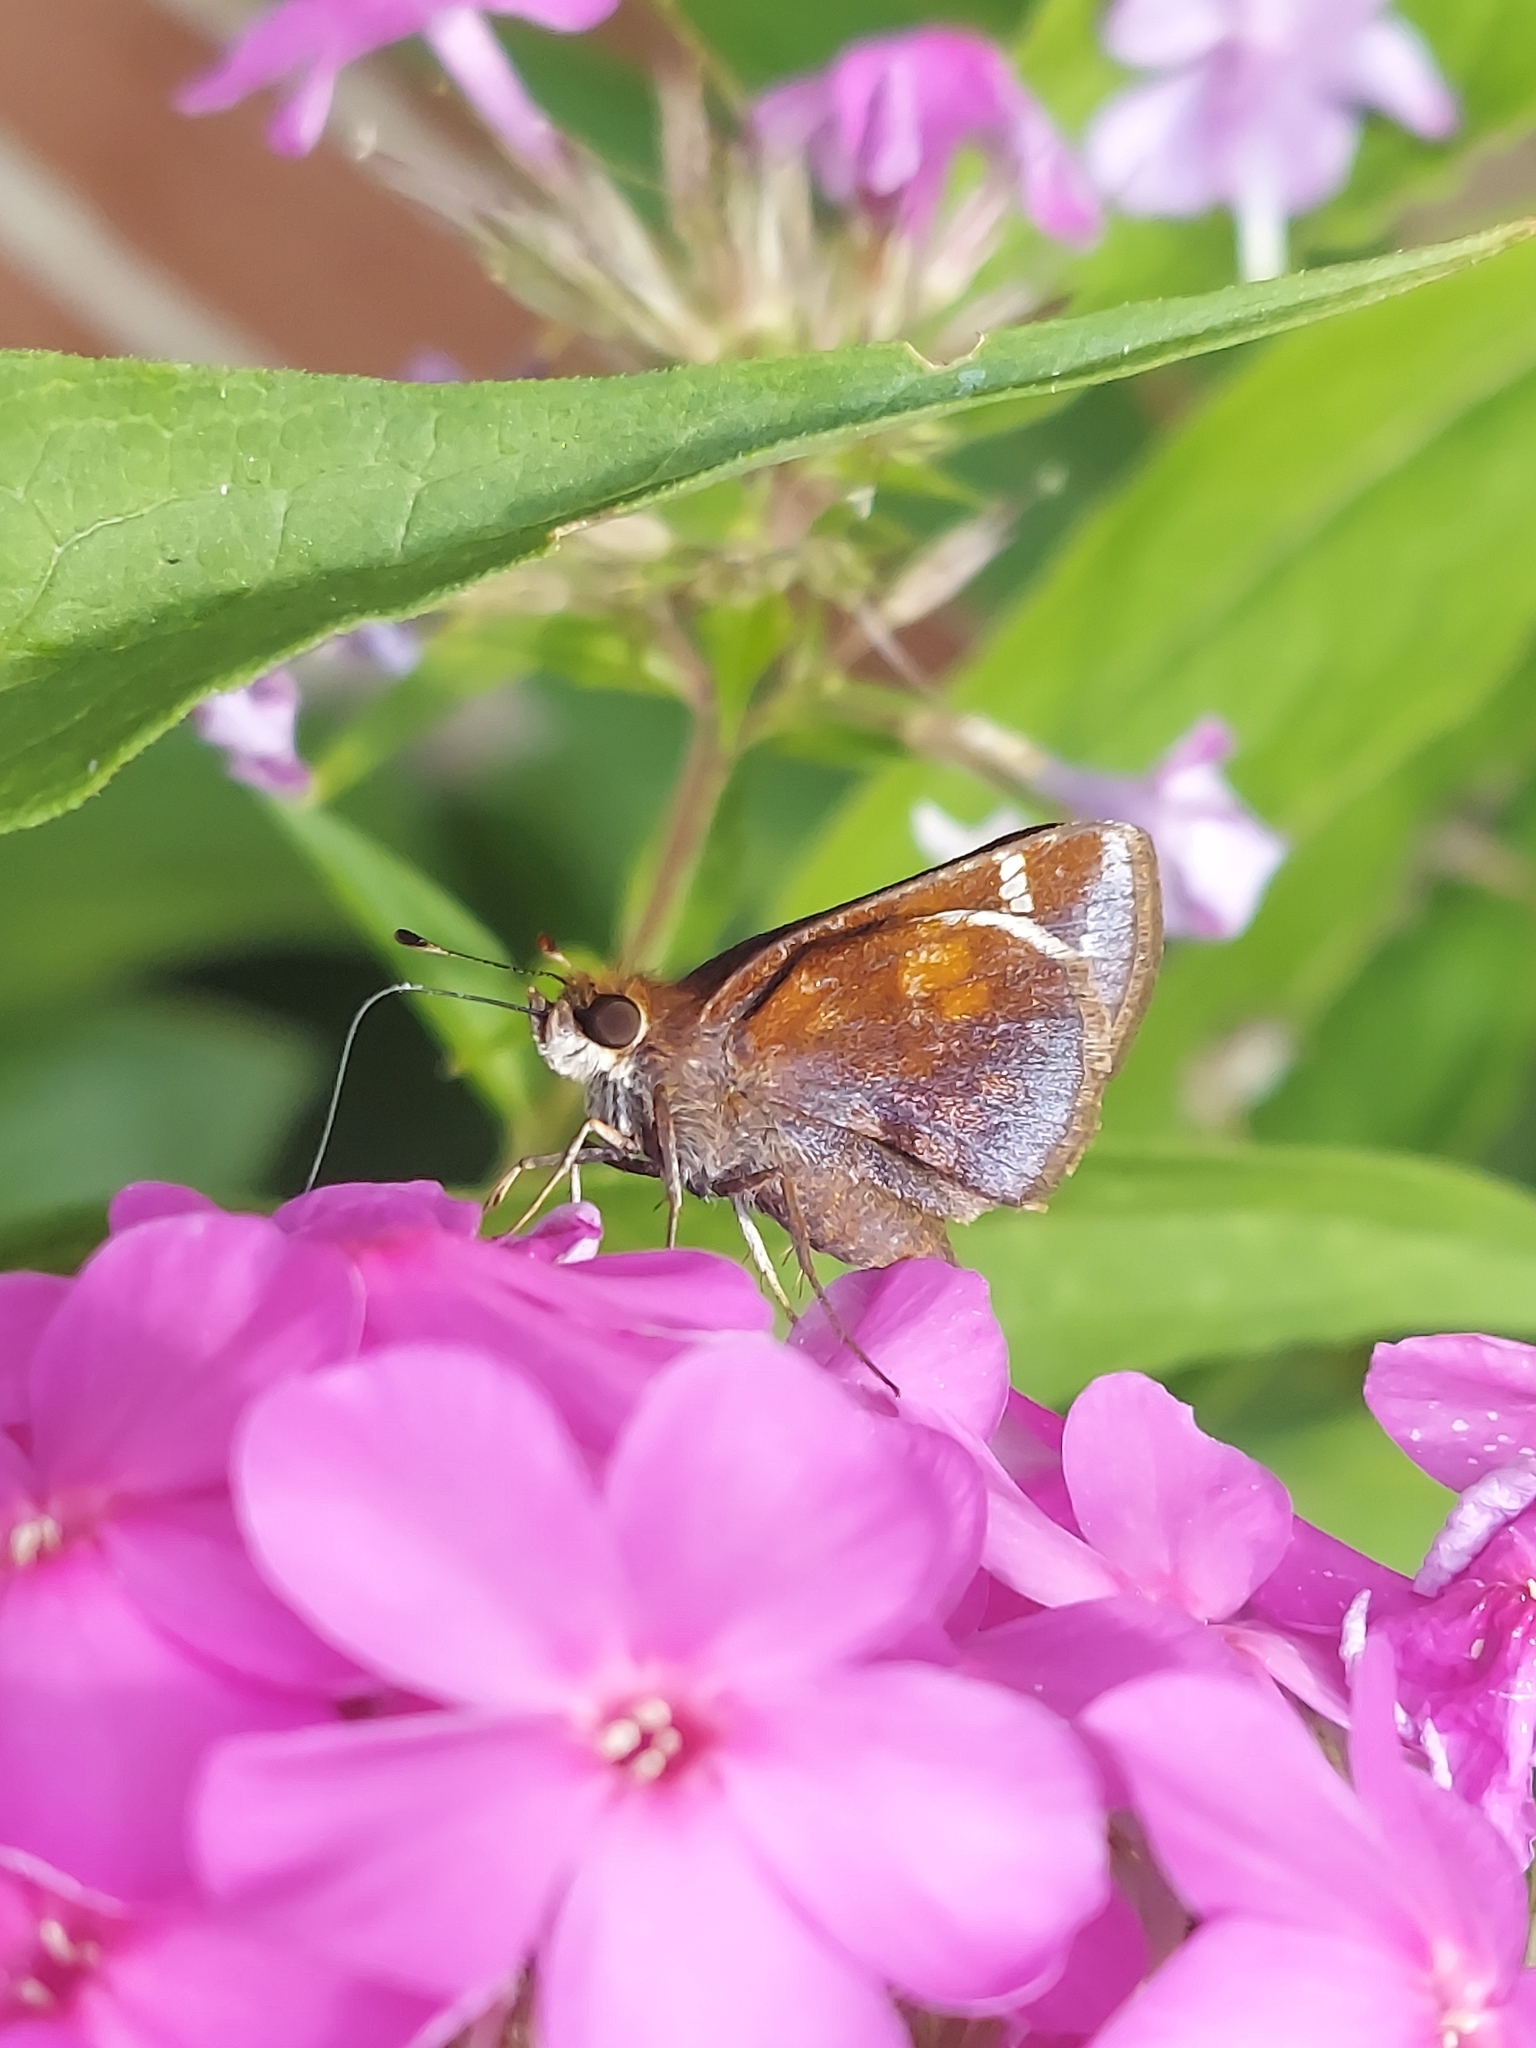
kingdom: Animalia
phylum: Arthropoda
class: Insecta
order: Lepidoptera
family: Hesperiidae
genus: Lon
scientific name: Lon zabulon
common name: Zabulon skipper
